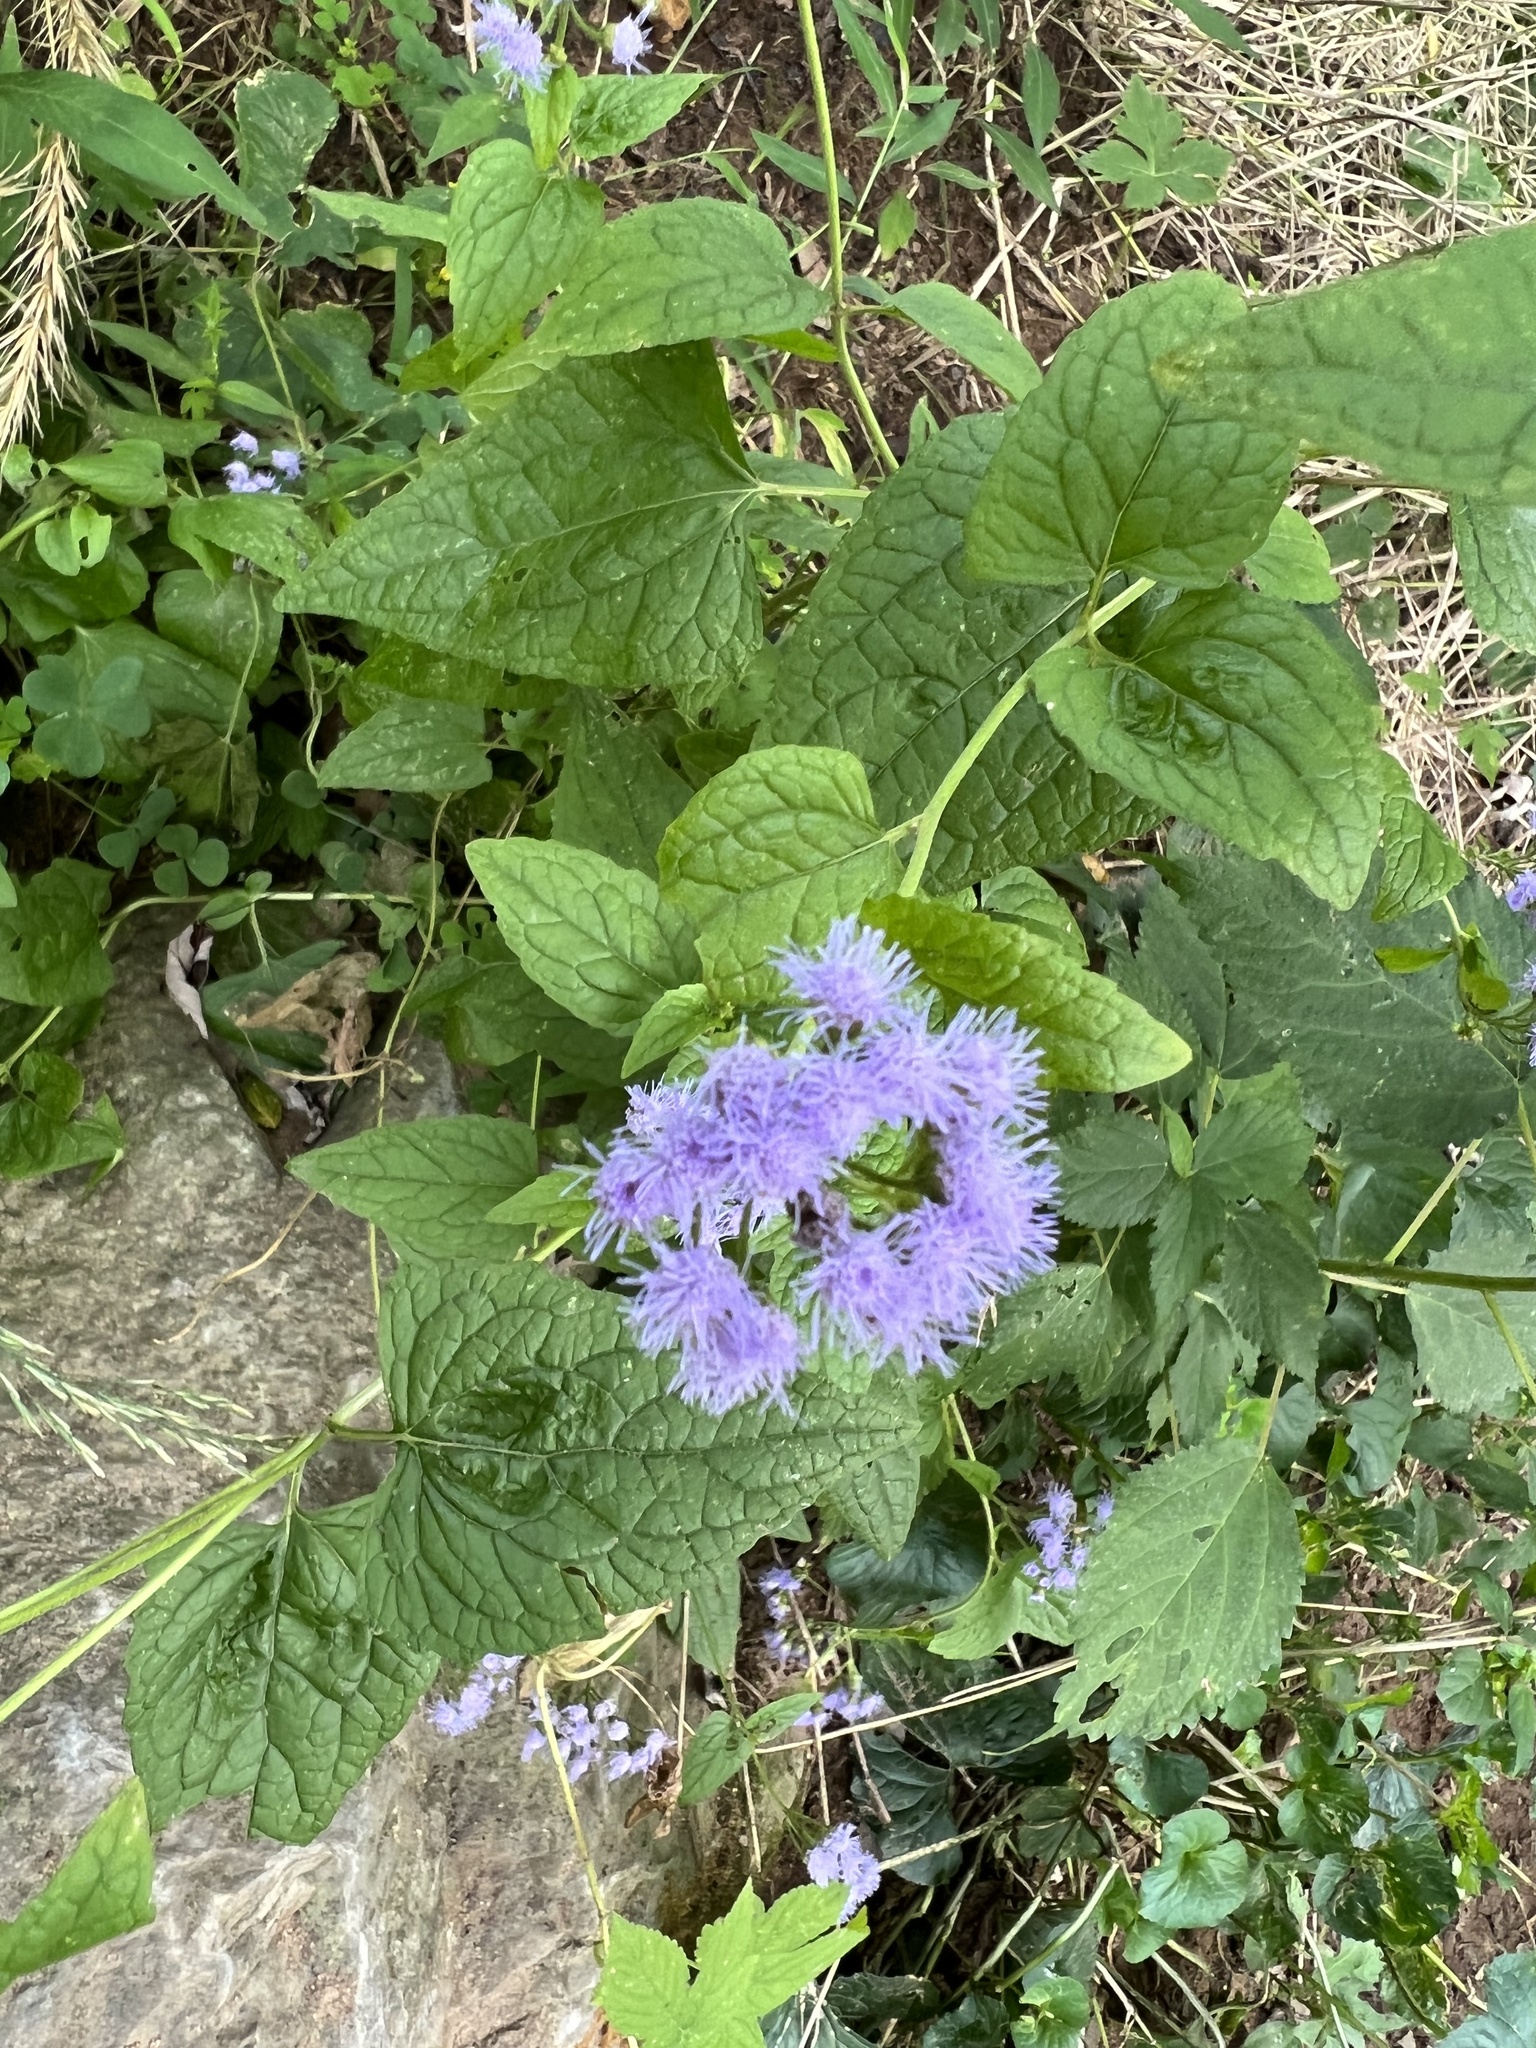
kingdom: Plantae
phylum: Tracheophyta
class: Magnoliopsida
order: Asterales
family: Asteraceae
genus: Conoclinium
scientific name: Conoclinium coelestinum
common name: Blue mistflower
